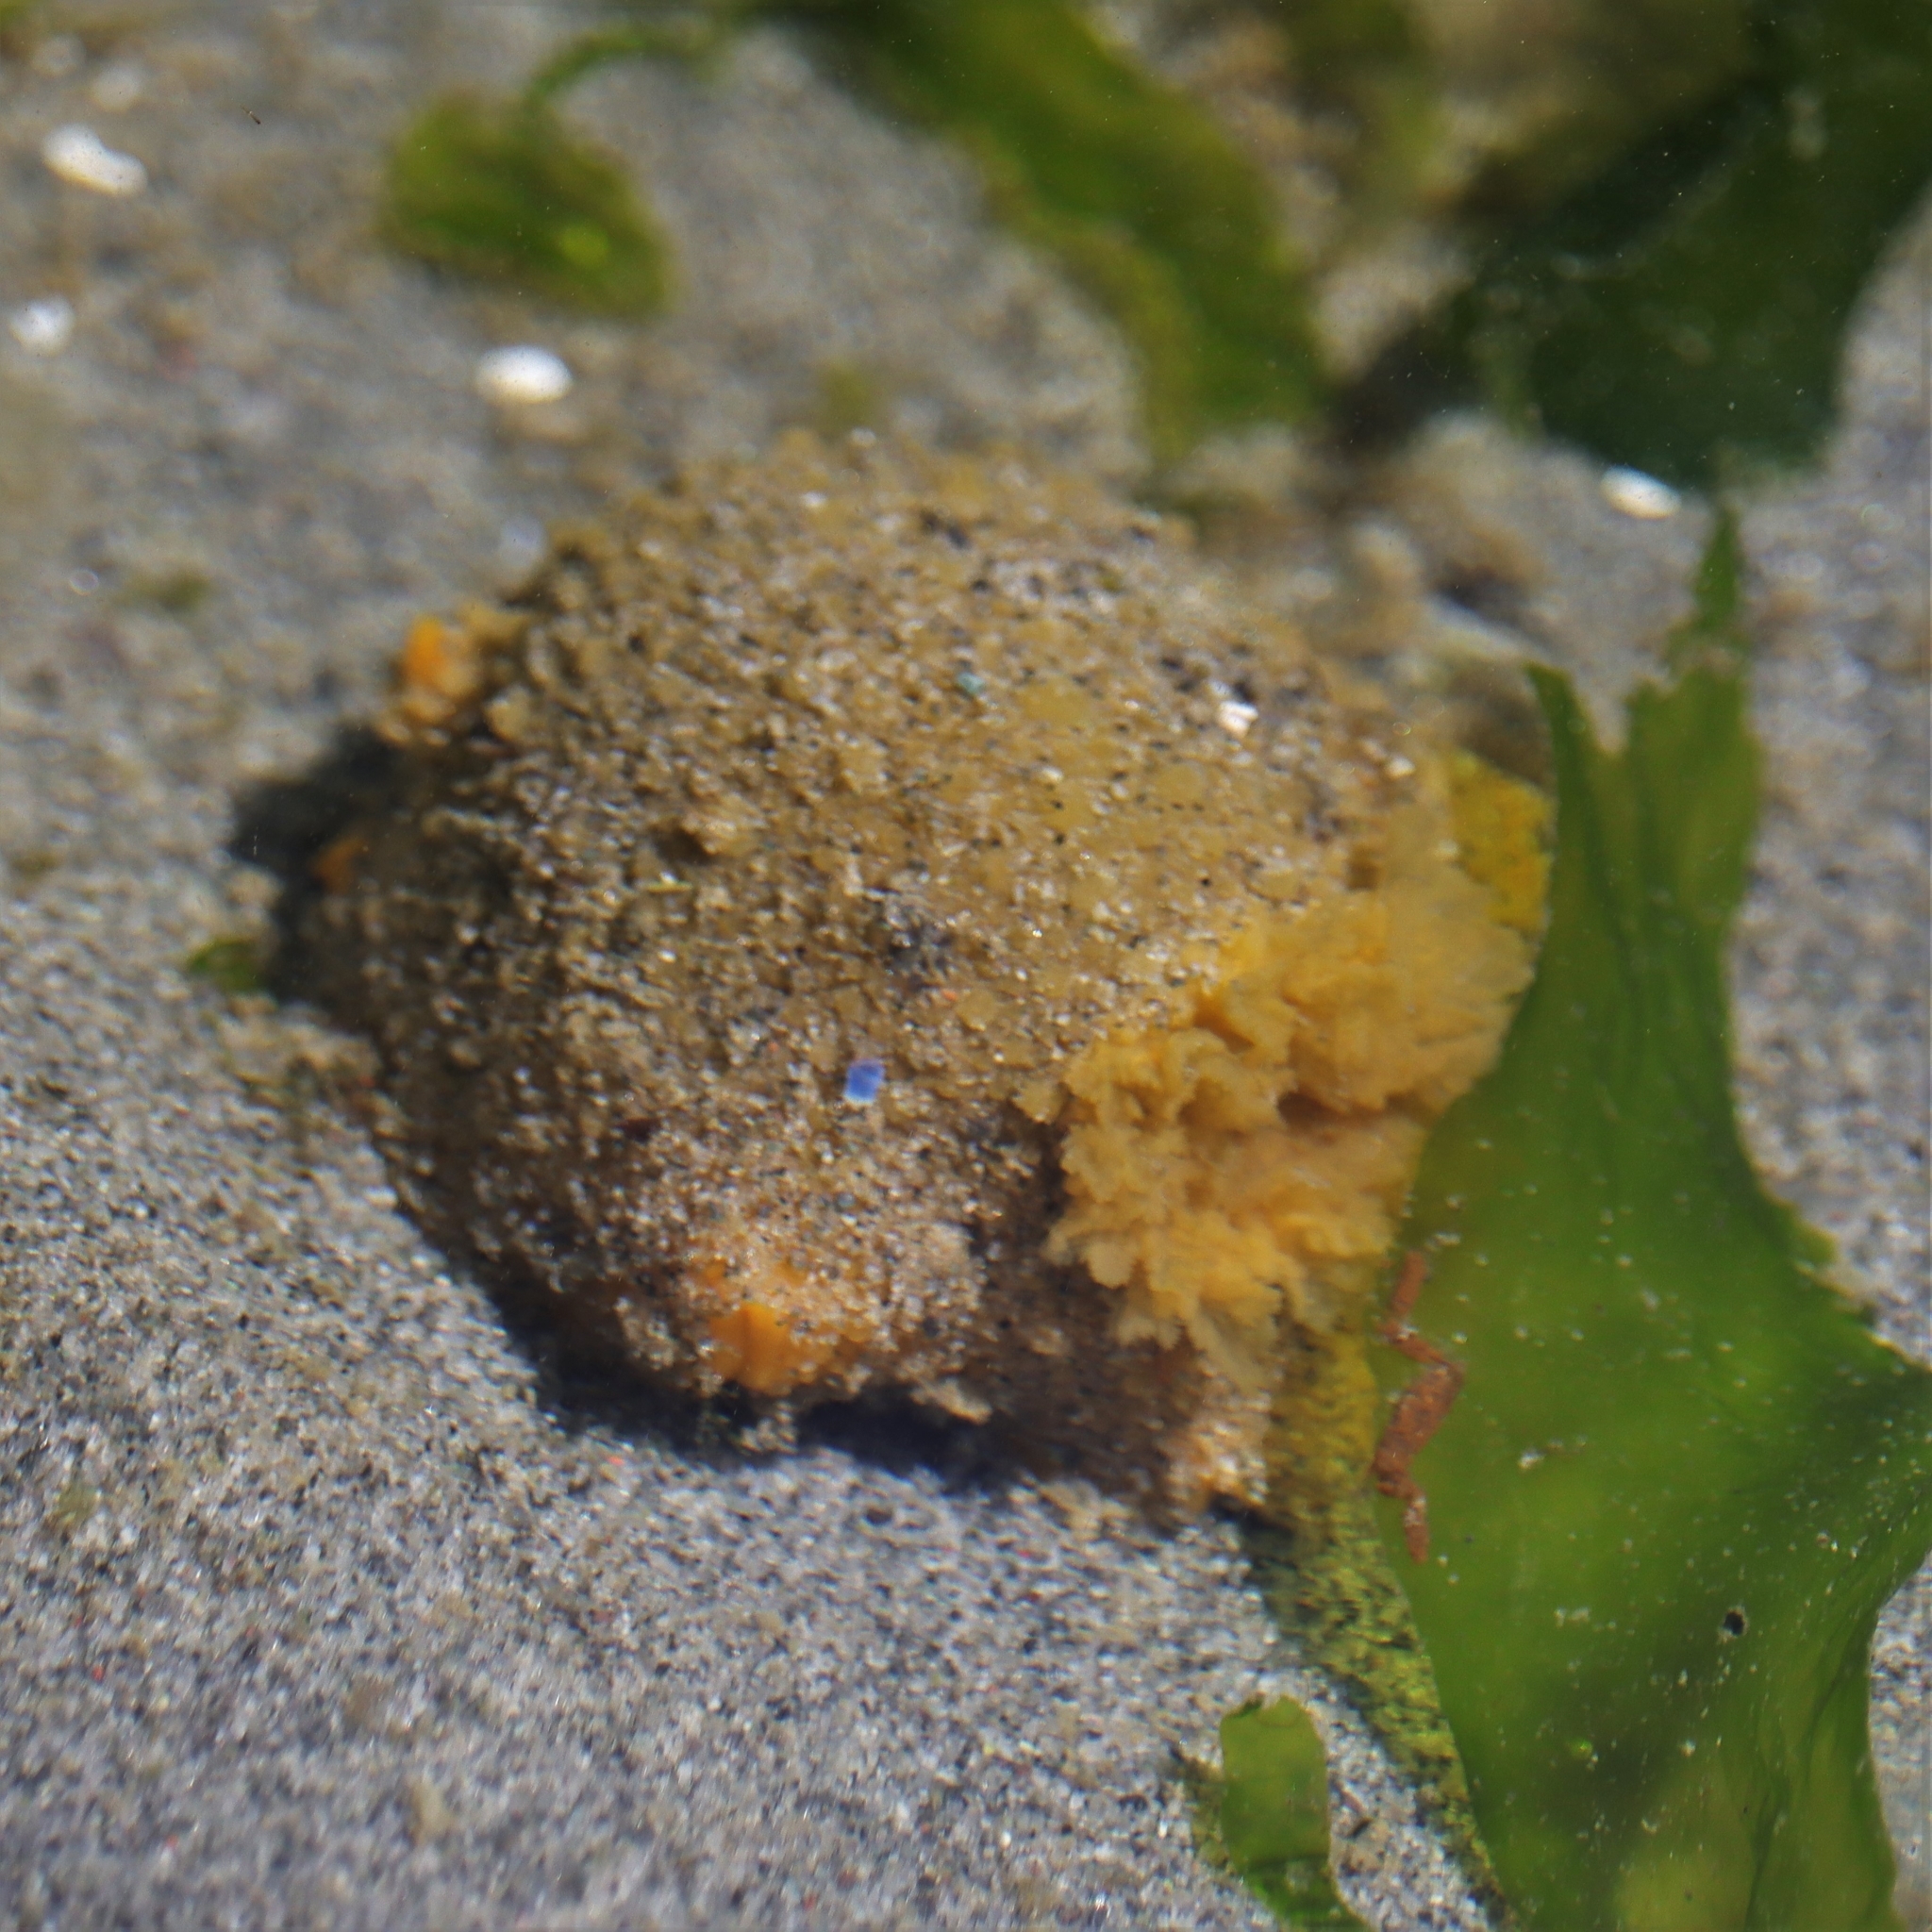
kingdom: Animalia
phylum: Mollusca
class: Gastropoda
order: Nudibranchia
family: Dorididae
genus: Doris
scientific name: Doris montereyensis
